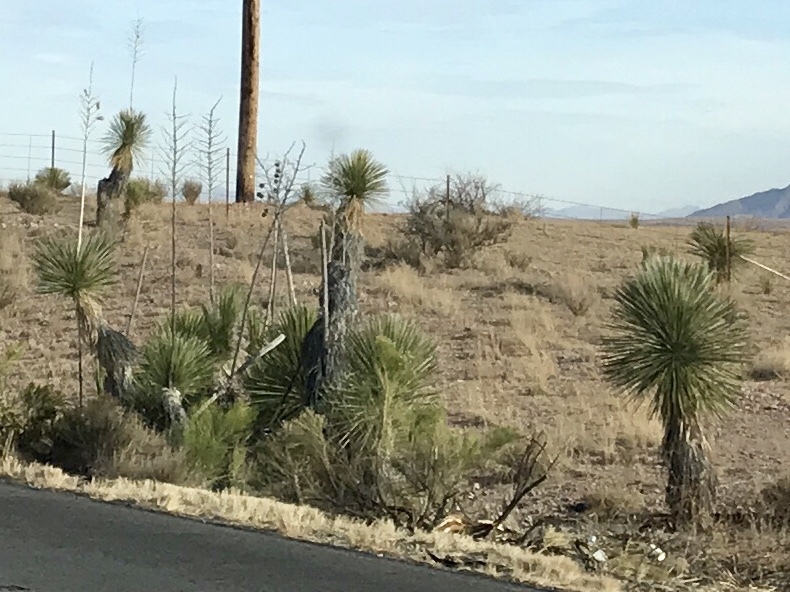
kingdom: Plantae
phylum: Tracheophyta
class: Liliopsida
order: Asparagales
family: Asparagaceae
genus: Yucca
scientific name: Yucca elata
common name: Palmella
